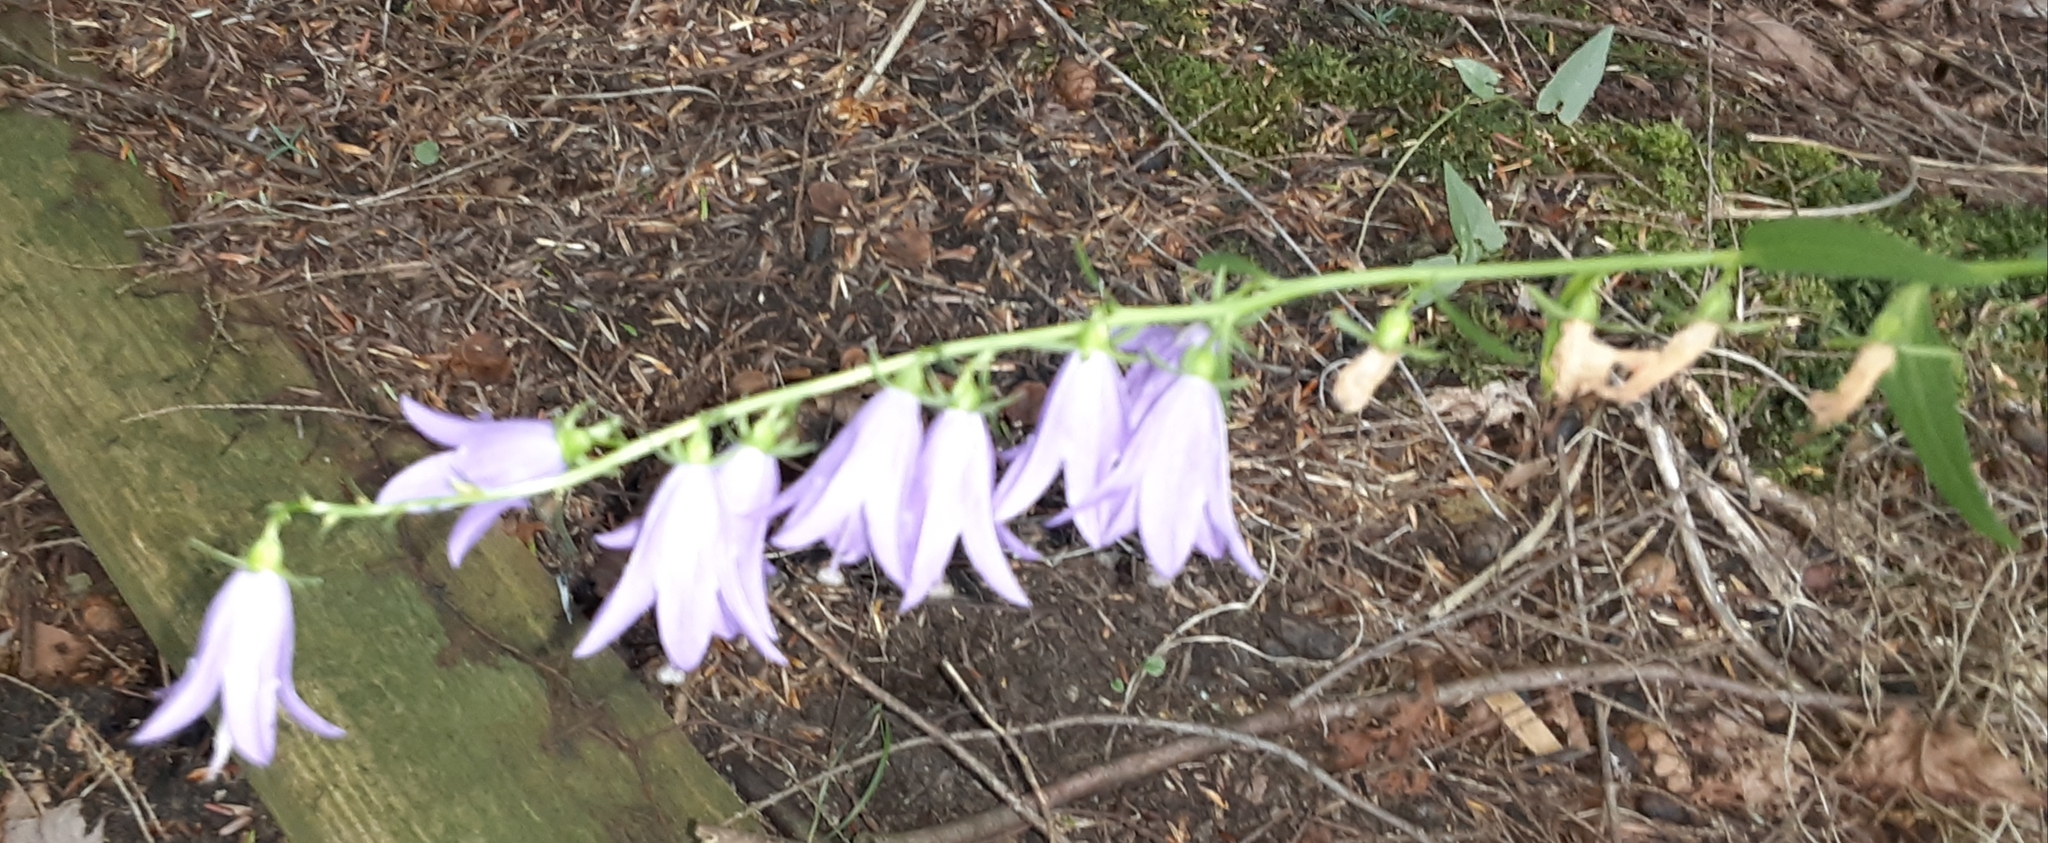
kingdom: Plantae
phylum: Tracheophyta
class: Magnoliopsida
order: Asterales
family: Campanulaceae
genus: Campanula
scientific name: Campanula rapunculoides
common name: Creeping bellflower
